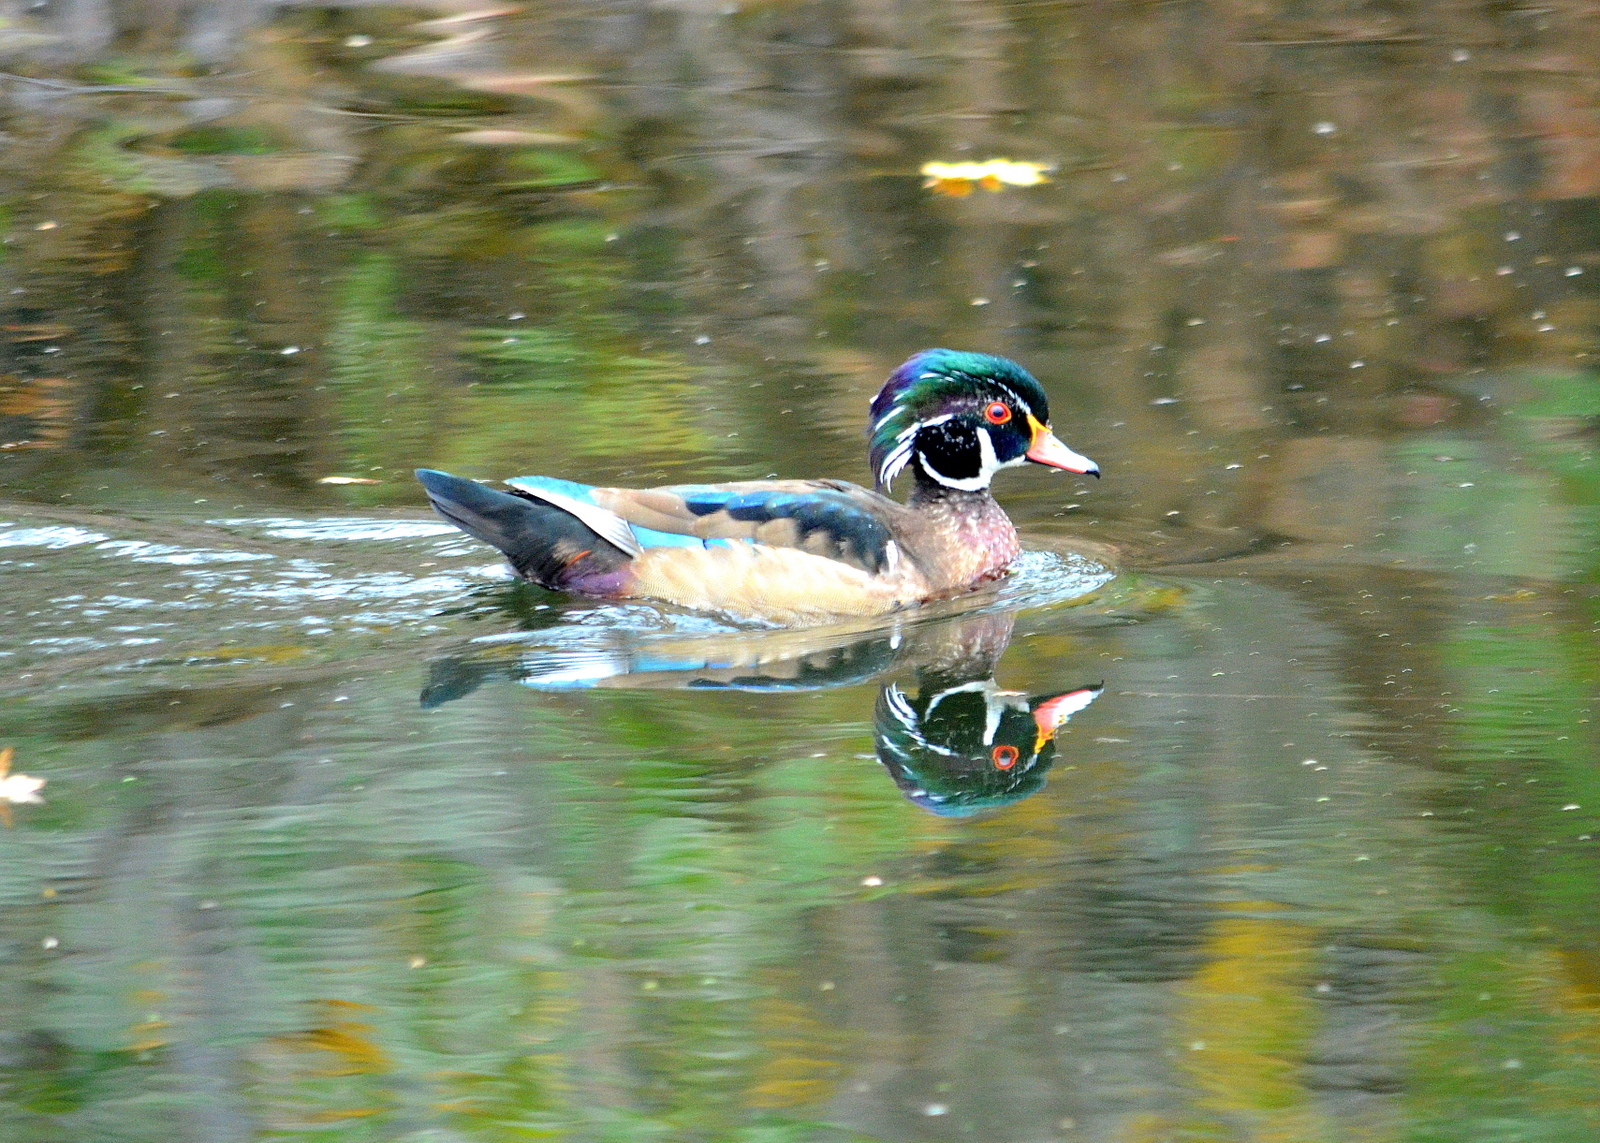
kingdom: Animalia
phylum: Chordata
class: Aves
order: Anseriformes
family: Anatidae
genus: Aix
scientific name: Aix sponsa
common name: Wood duck
